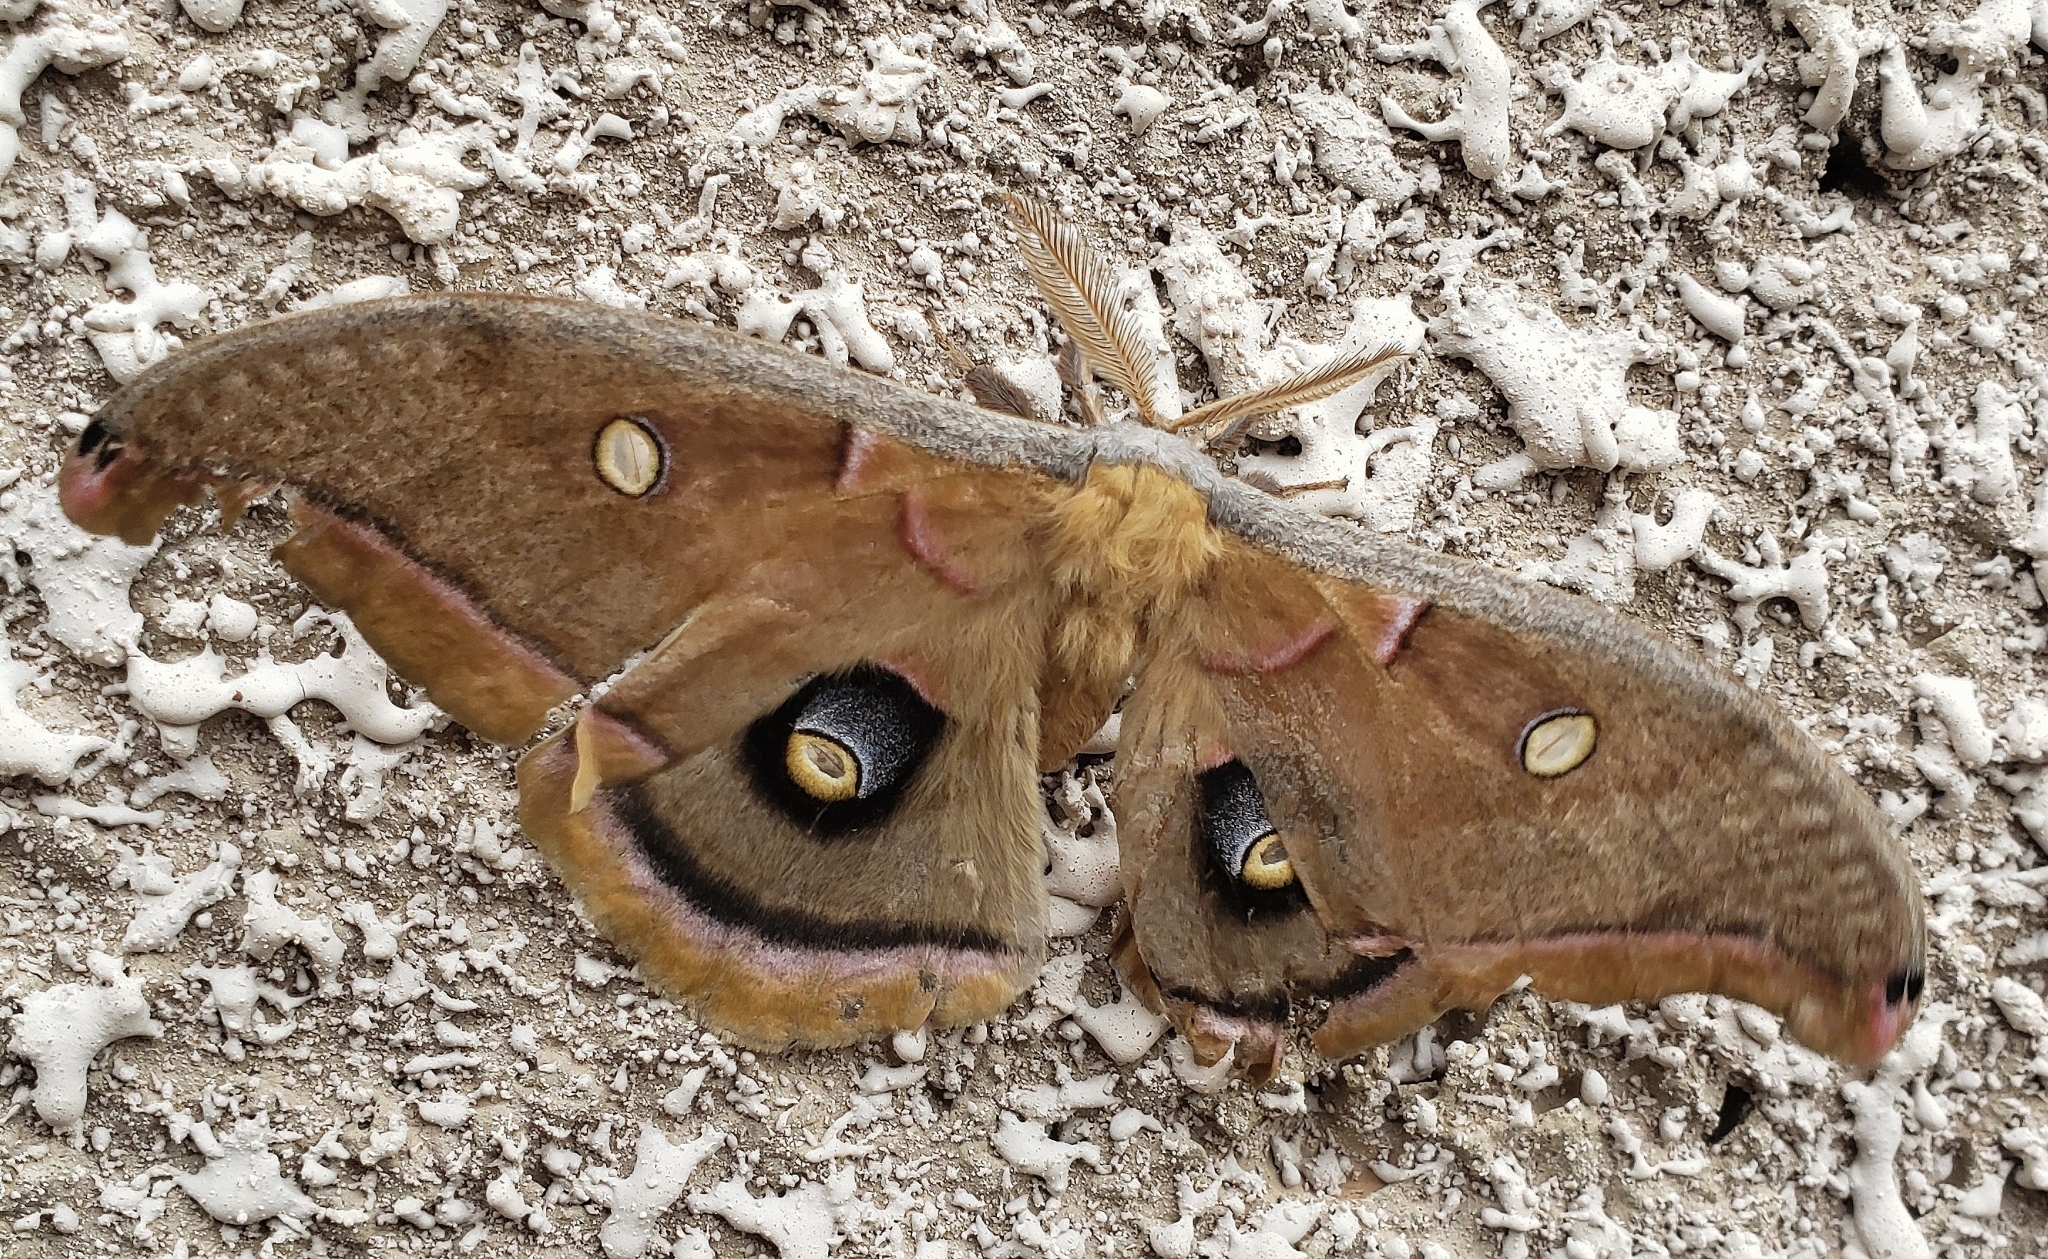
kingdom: Animalia
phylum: Arthropoda
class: Insecta
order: Lepidoptera
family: Saturniidae
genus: Antheraea
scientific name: Antheraea polyphemus
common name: Polyphemus moth
